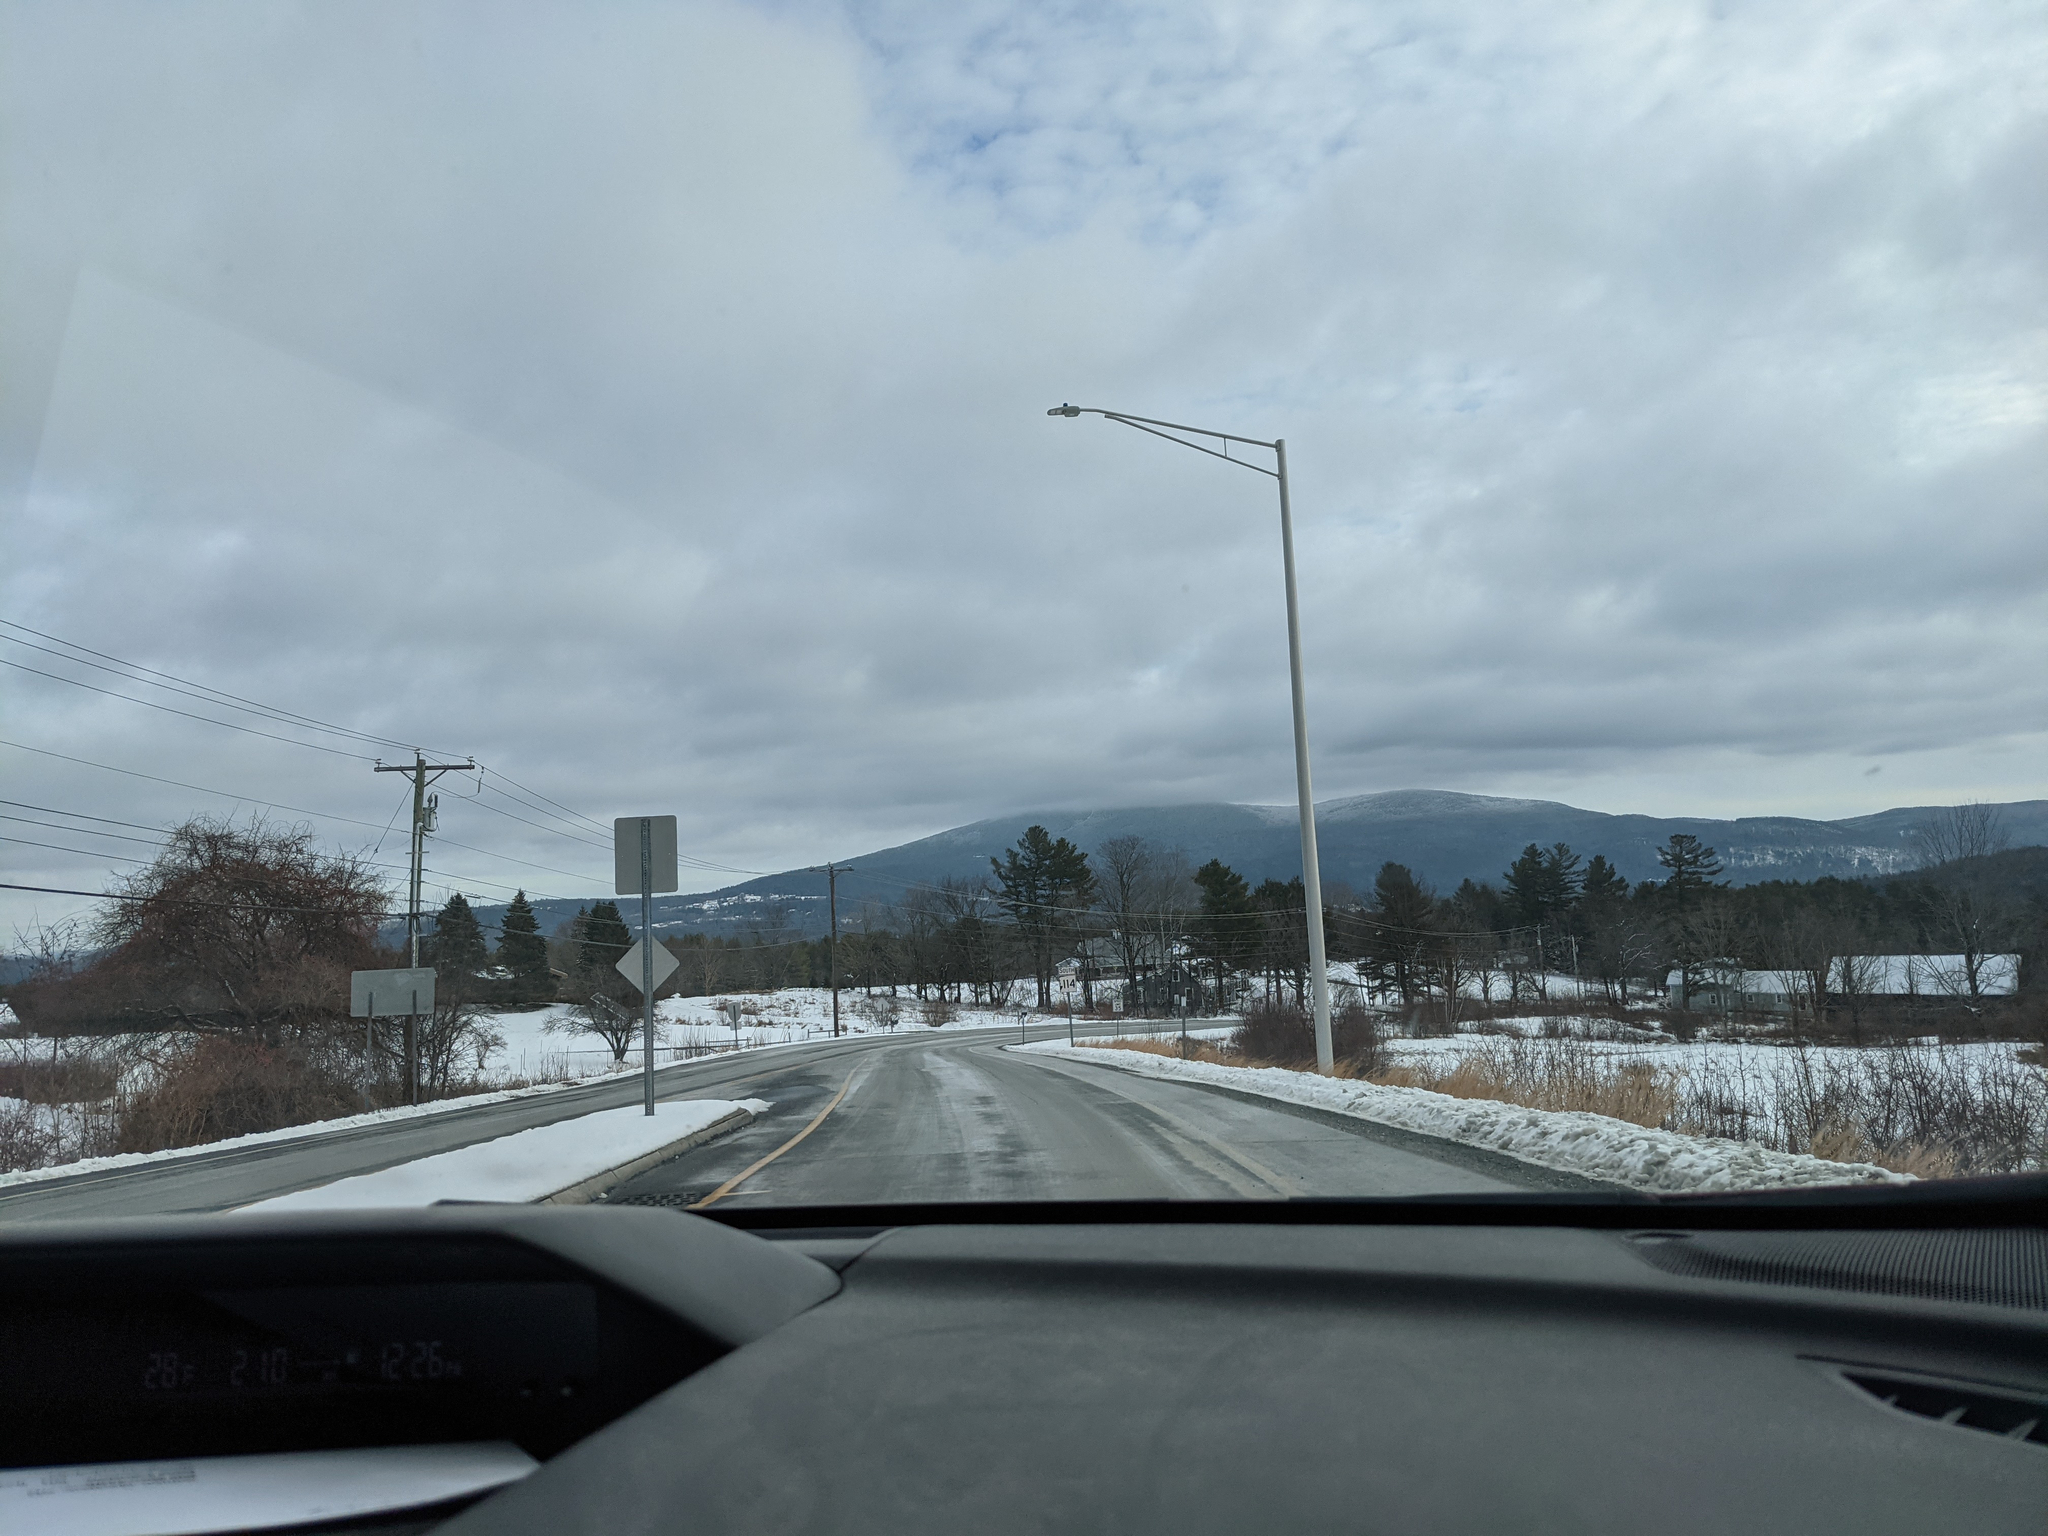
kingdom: Plantae
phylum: Tracheophyta
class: Pinopsida
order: Pinales
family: Pinaceae
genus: Pinus
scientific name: Pinus strobus
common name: Weymouth pine
